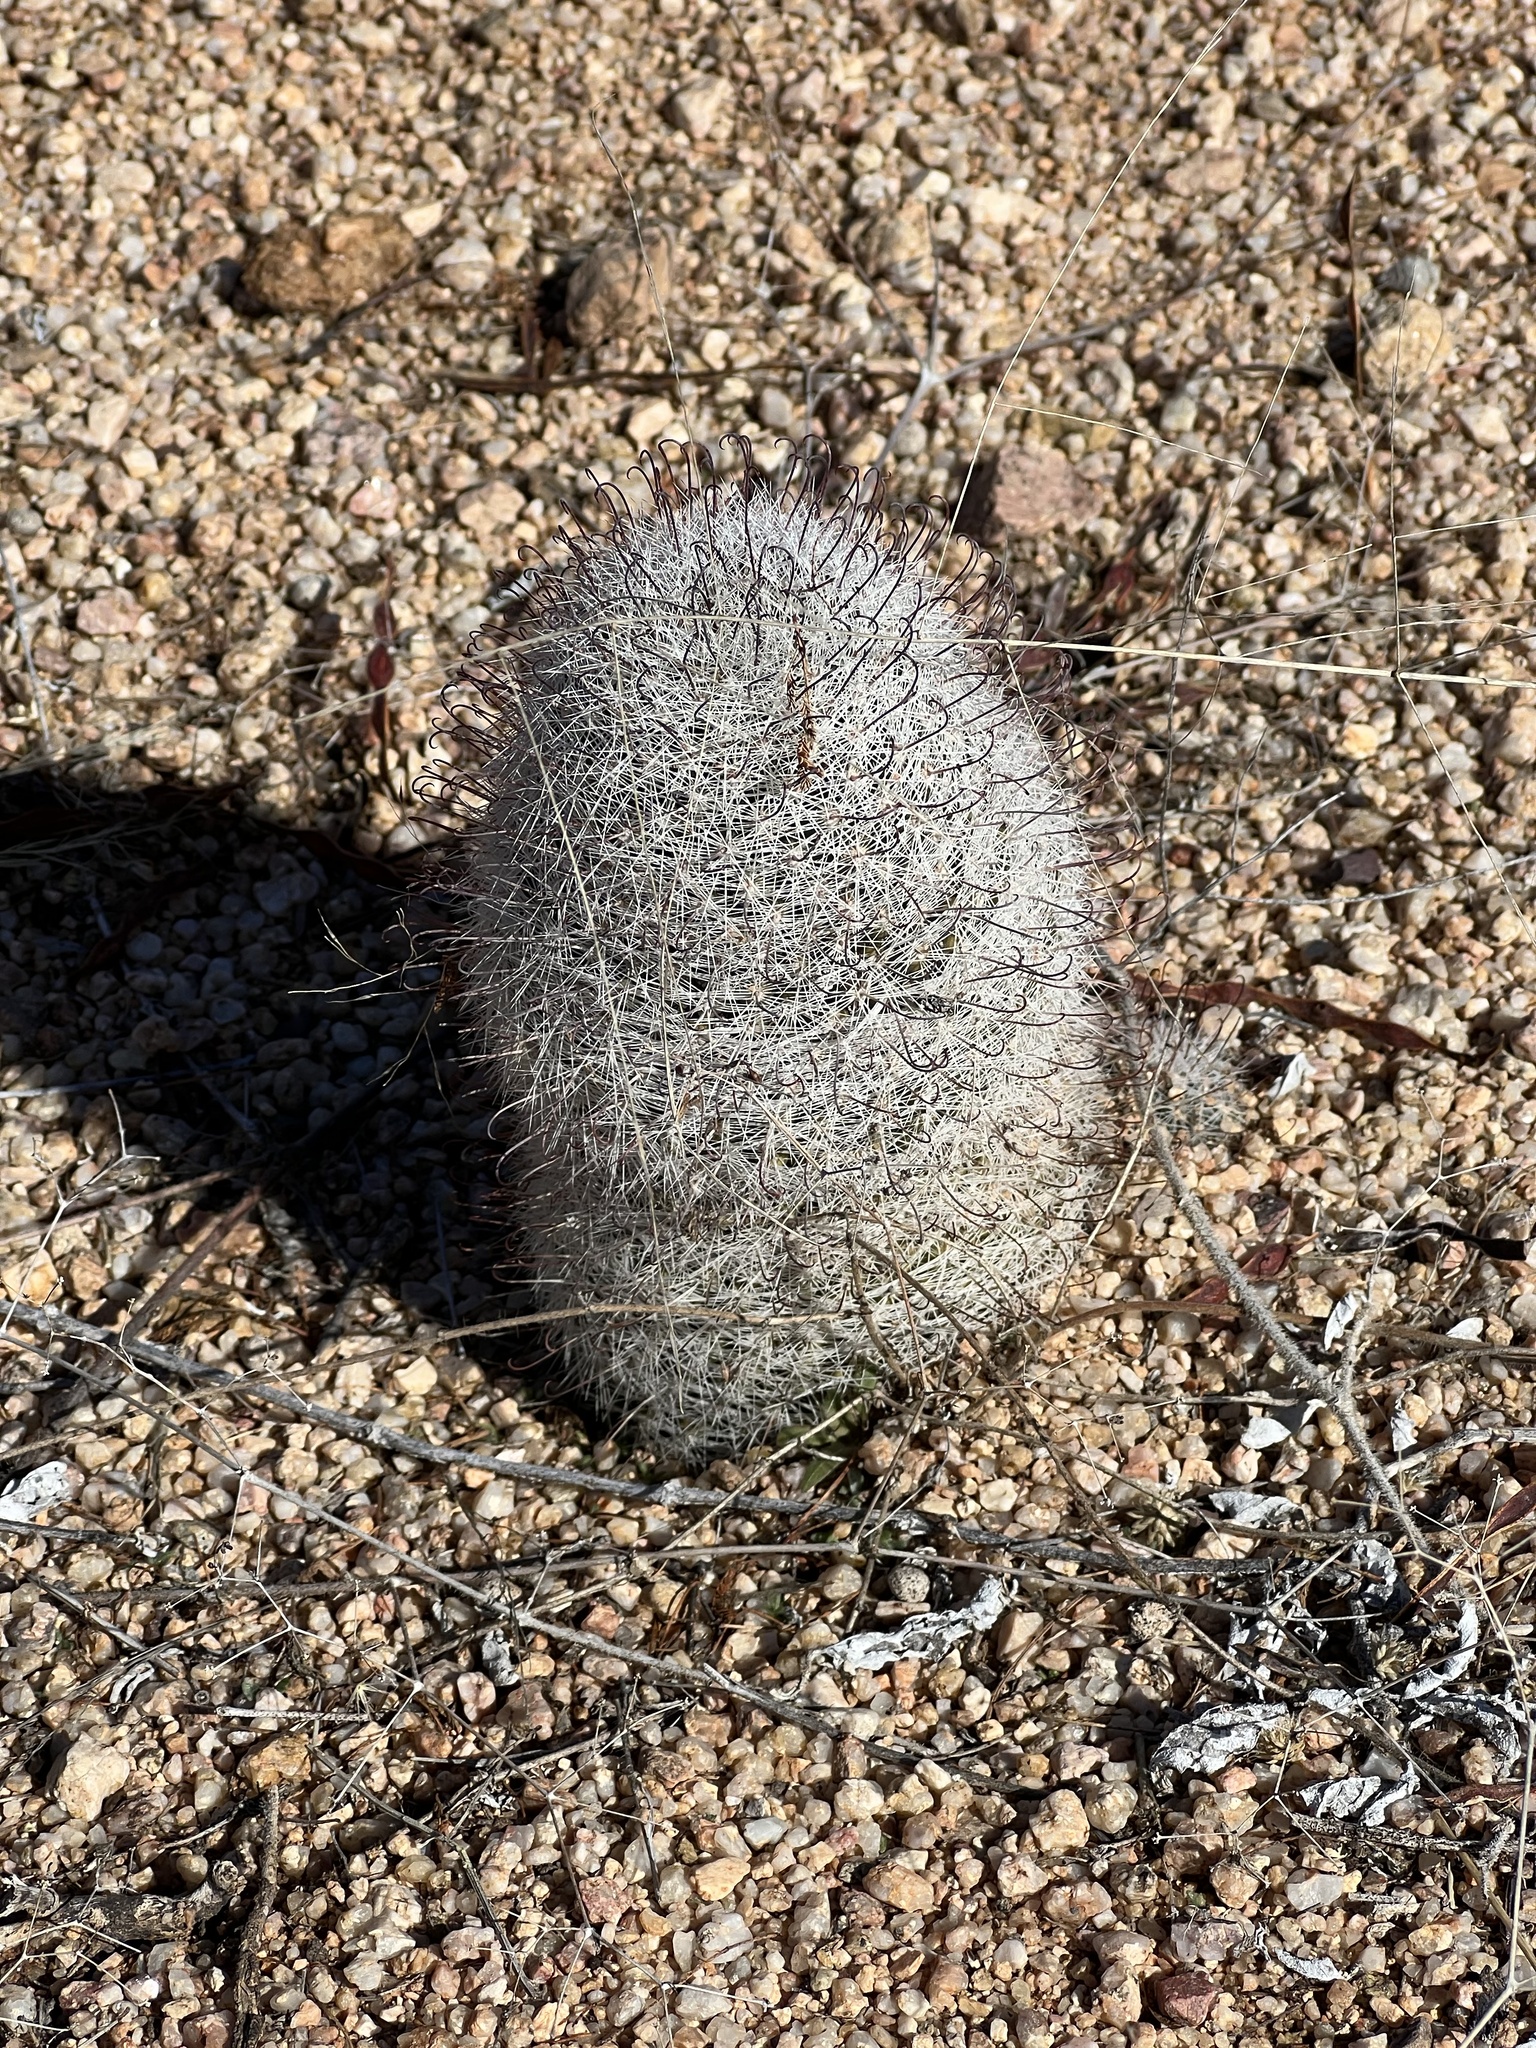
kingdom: Plantae
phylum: Tracheophyta
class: Magnoliopsida
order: Caryophyllales
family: Cactaceae
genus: Cochemiea
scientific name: Cochemiea grahamii
